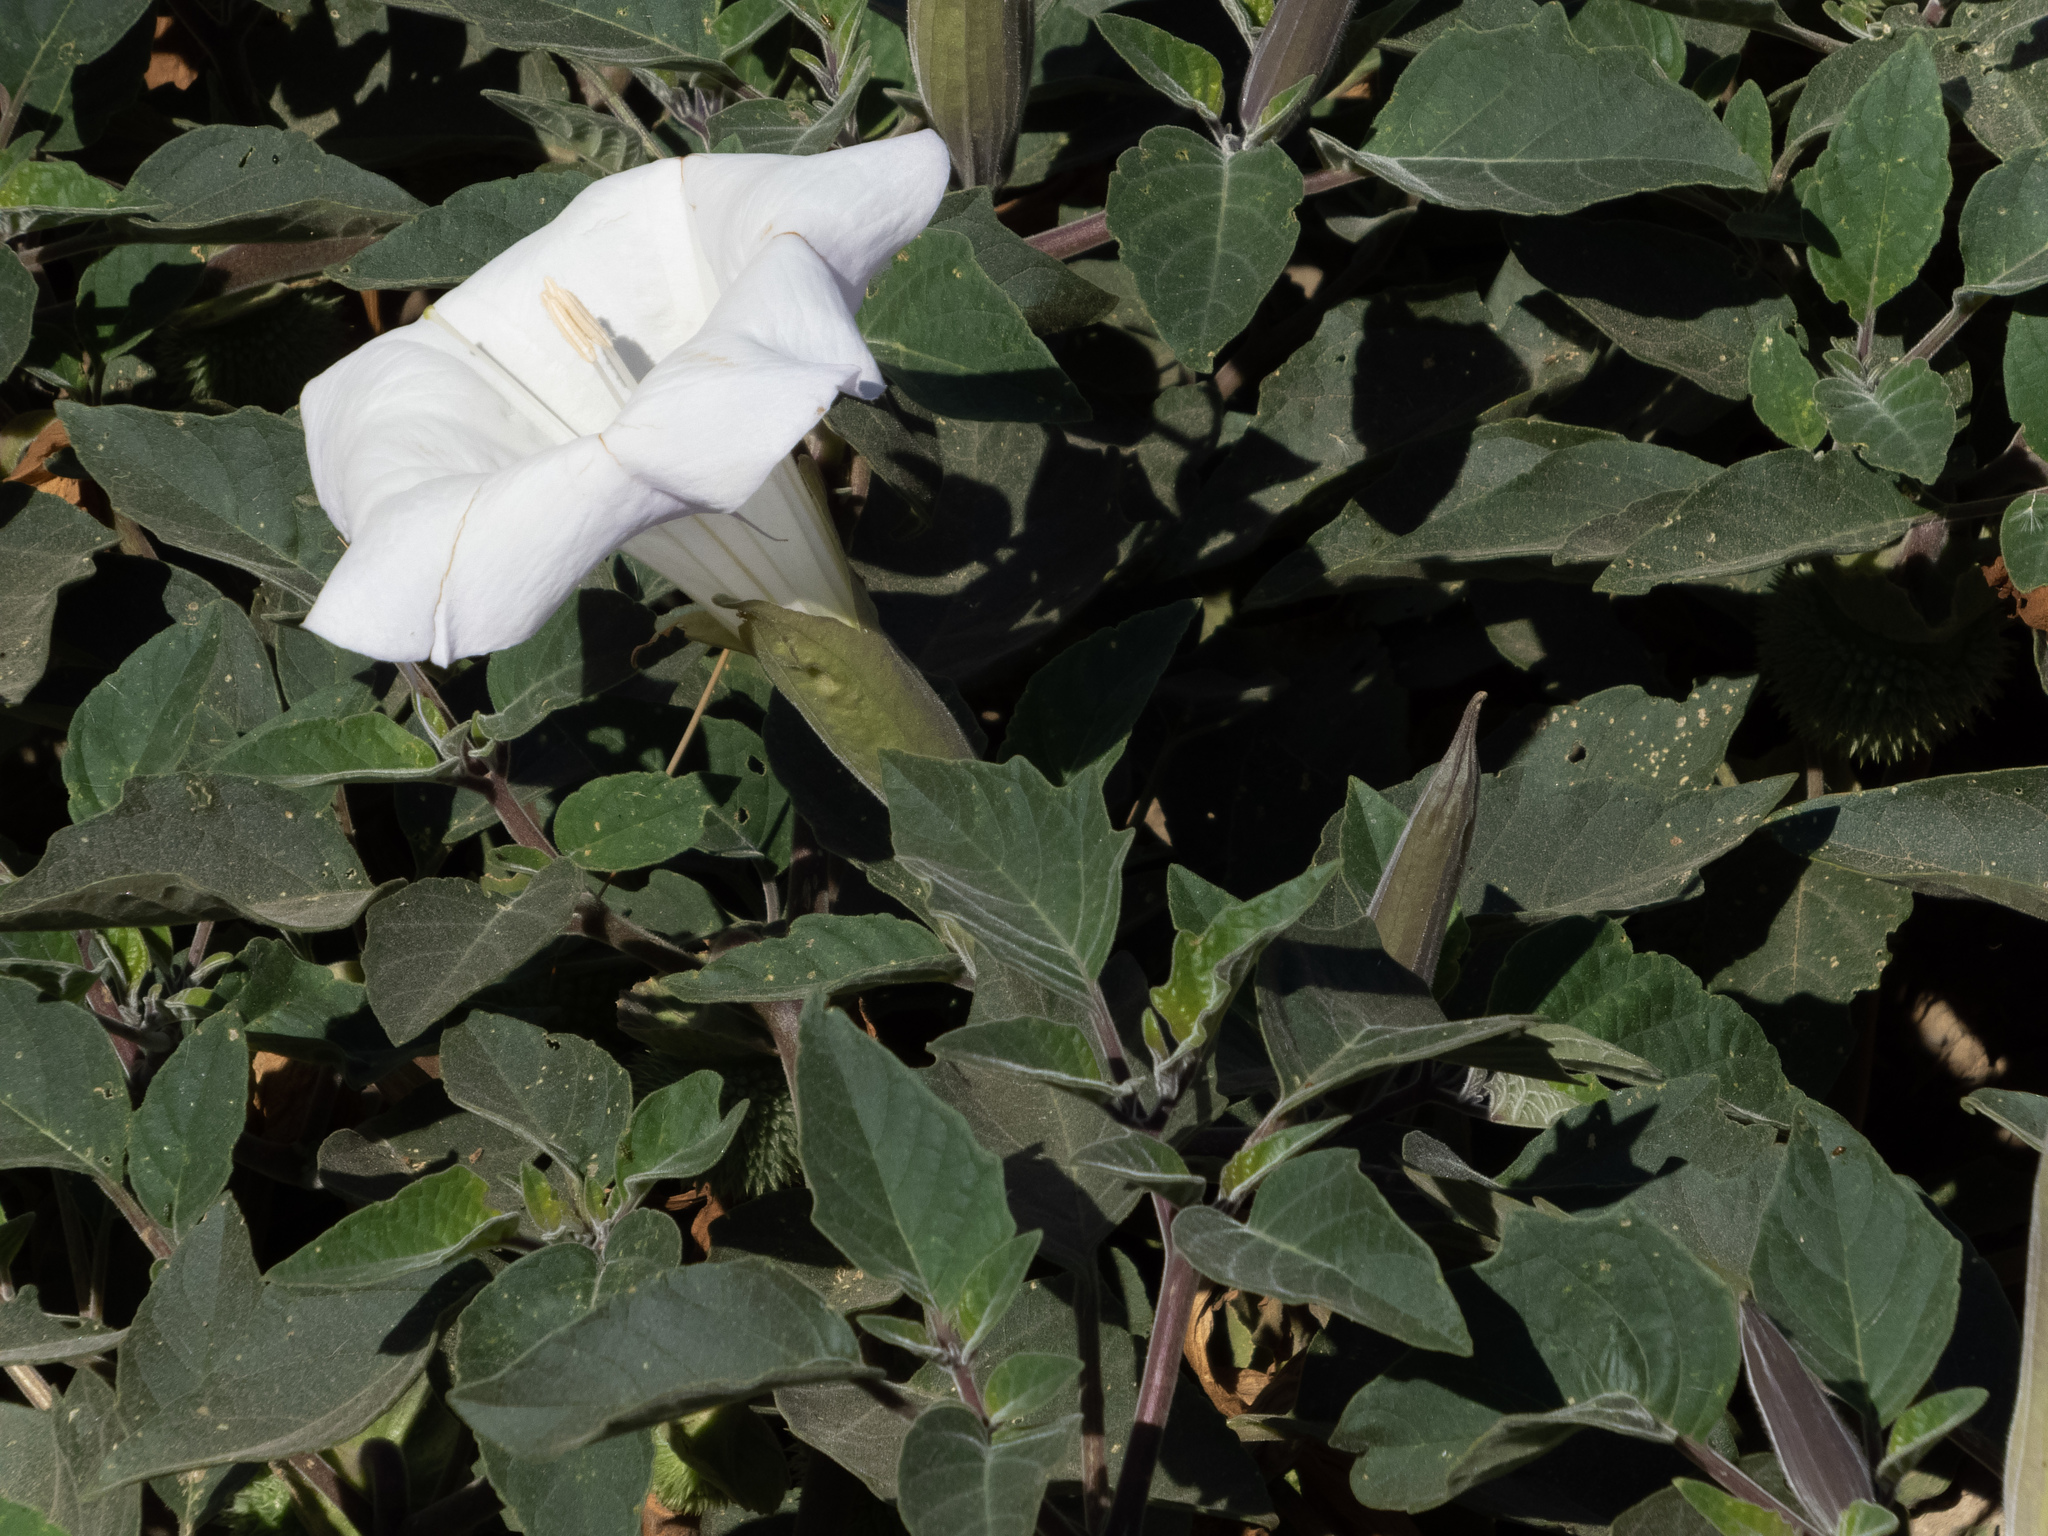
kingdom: Plantae
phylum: Tracheophyta
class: Magnoliopsida
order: Solanales
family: Solanaceae
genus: Datura
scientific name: Datura wrightii
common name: Sacred thorn-apple
